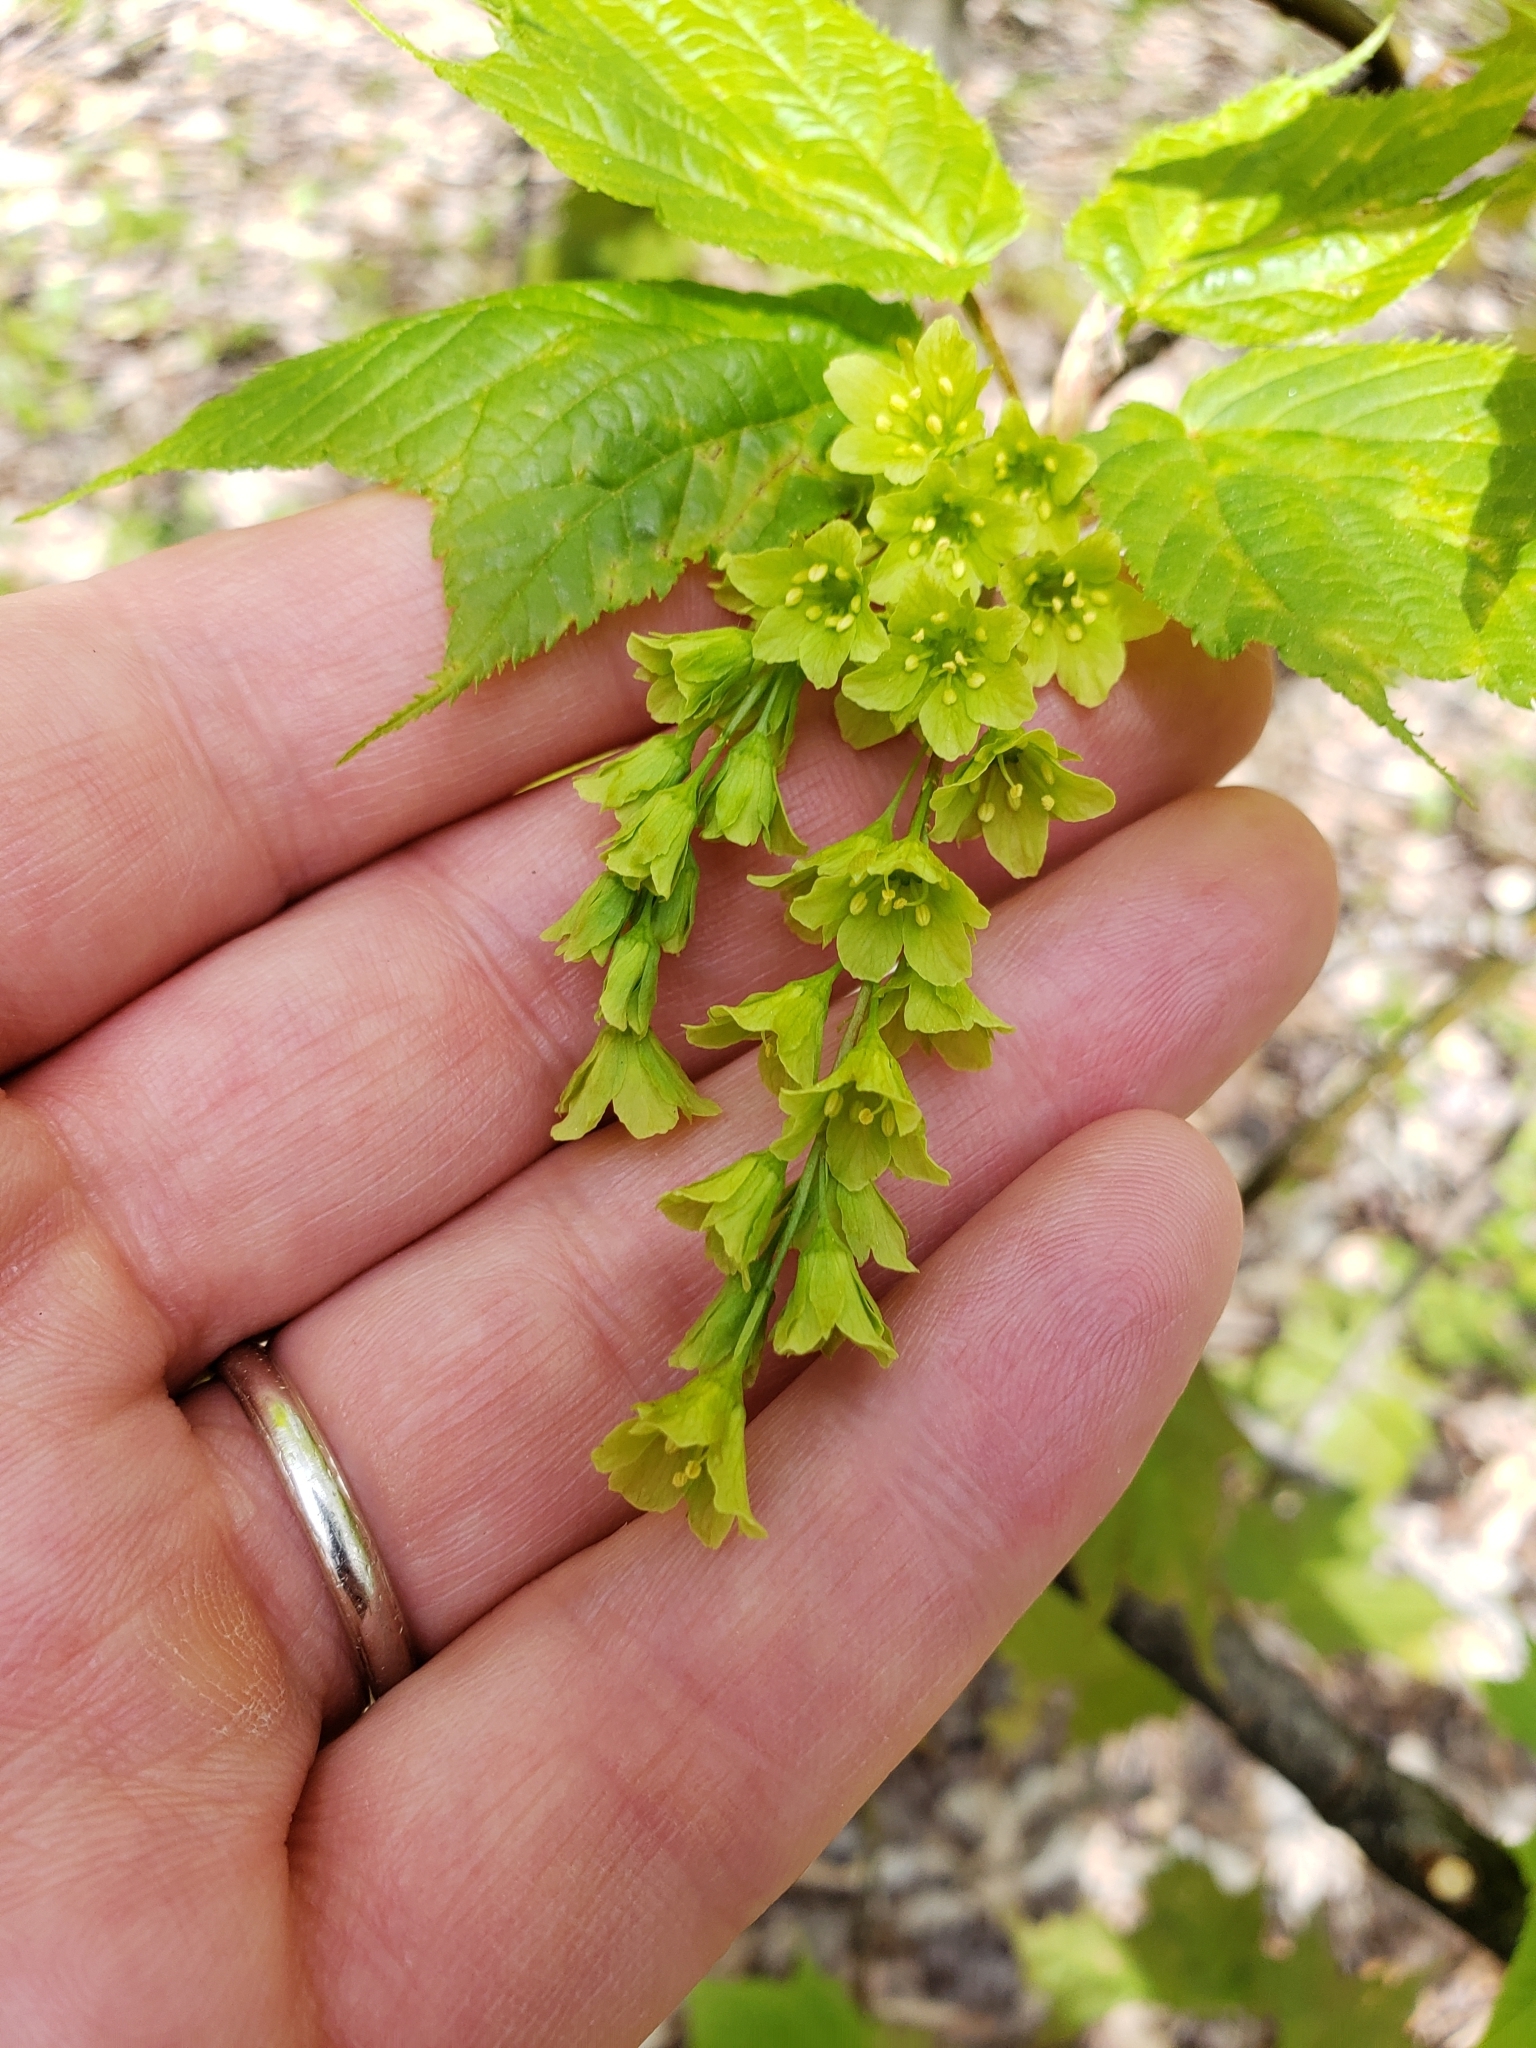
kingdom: Plantae
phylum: Tracheophyta
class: Magnoliopsida
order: Sapindales
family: Sapindaceae
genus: Acer
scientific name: Acer pensylvanicum
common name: Moosewood
